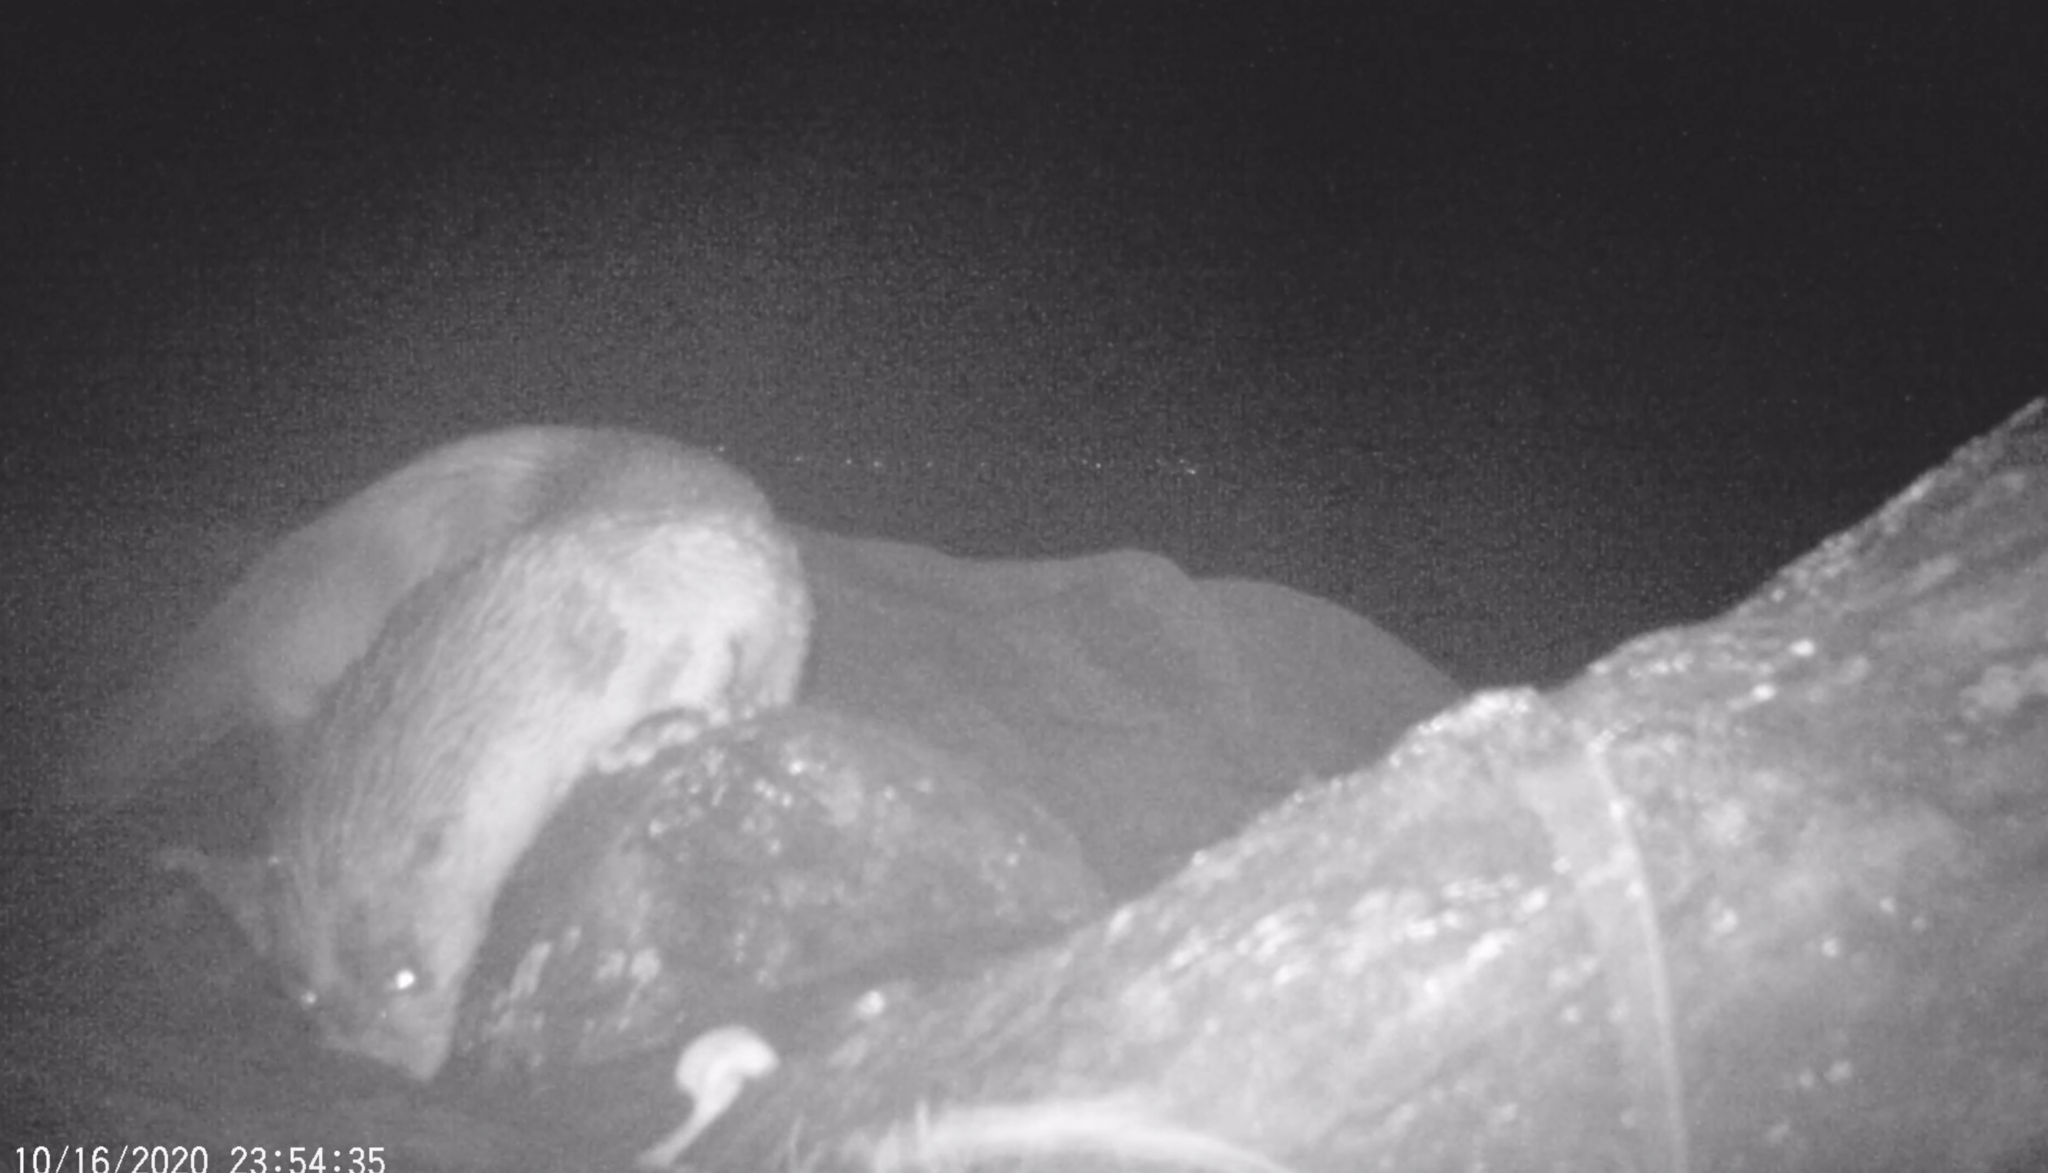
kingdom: Animalia
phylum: Chordata
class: Mammalia
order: Carnivora
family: Mustelidae
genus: Lutra
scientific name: Lutra lutra
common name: European otter
